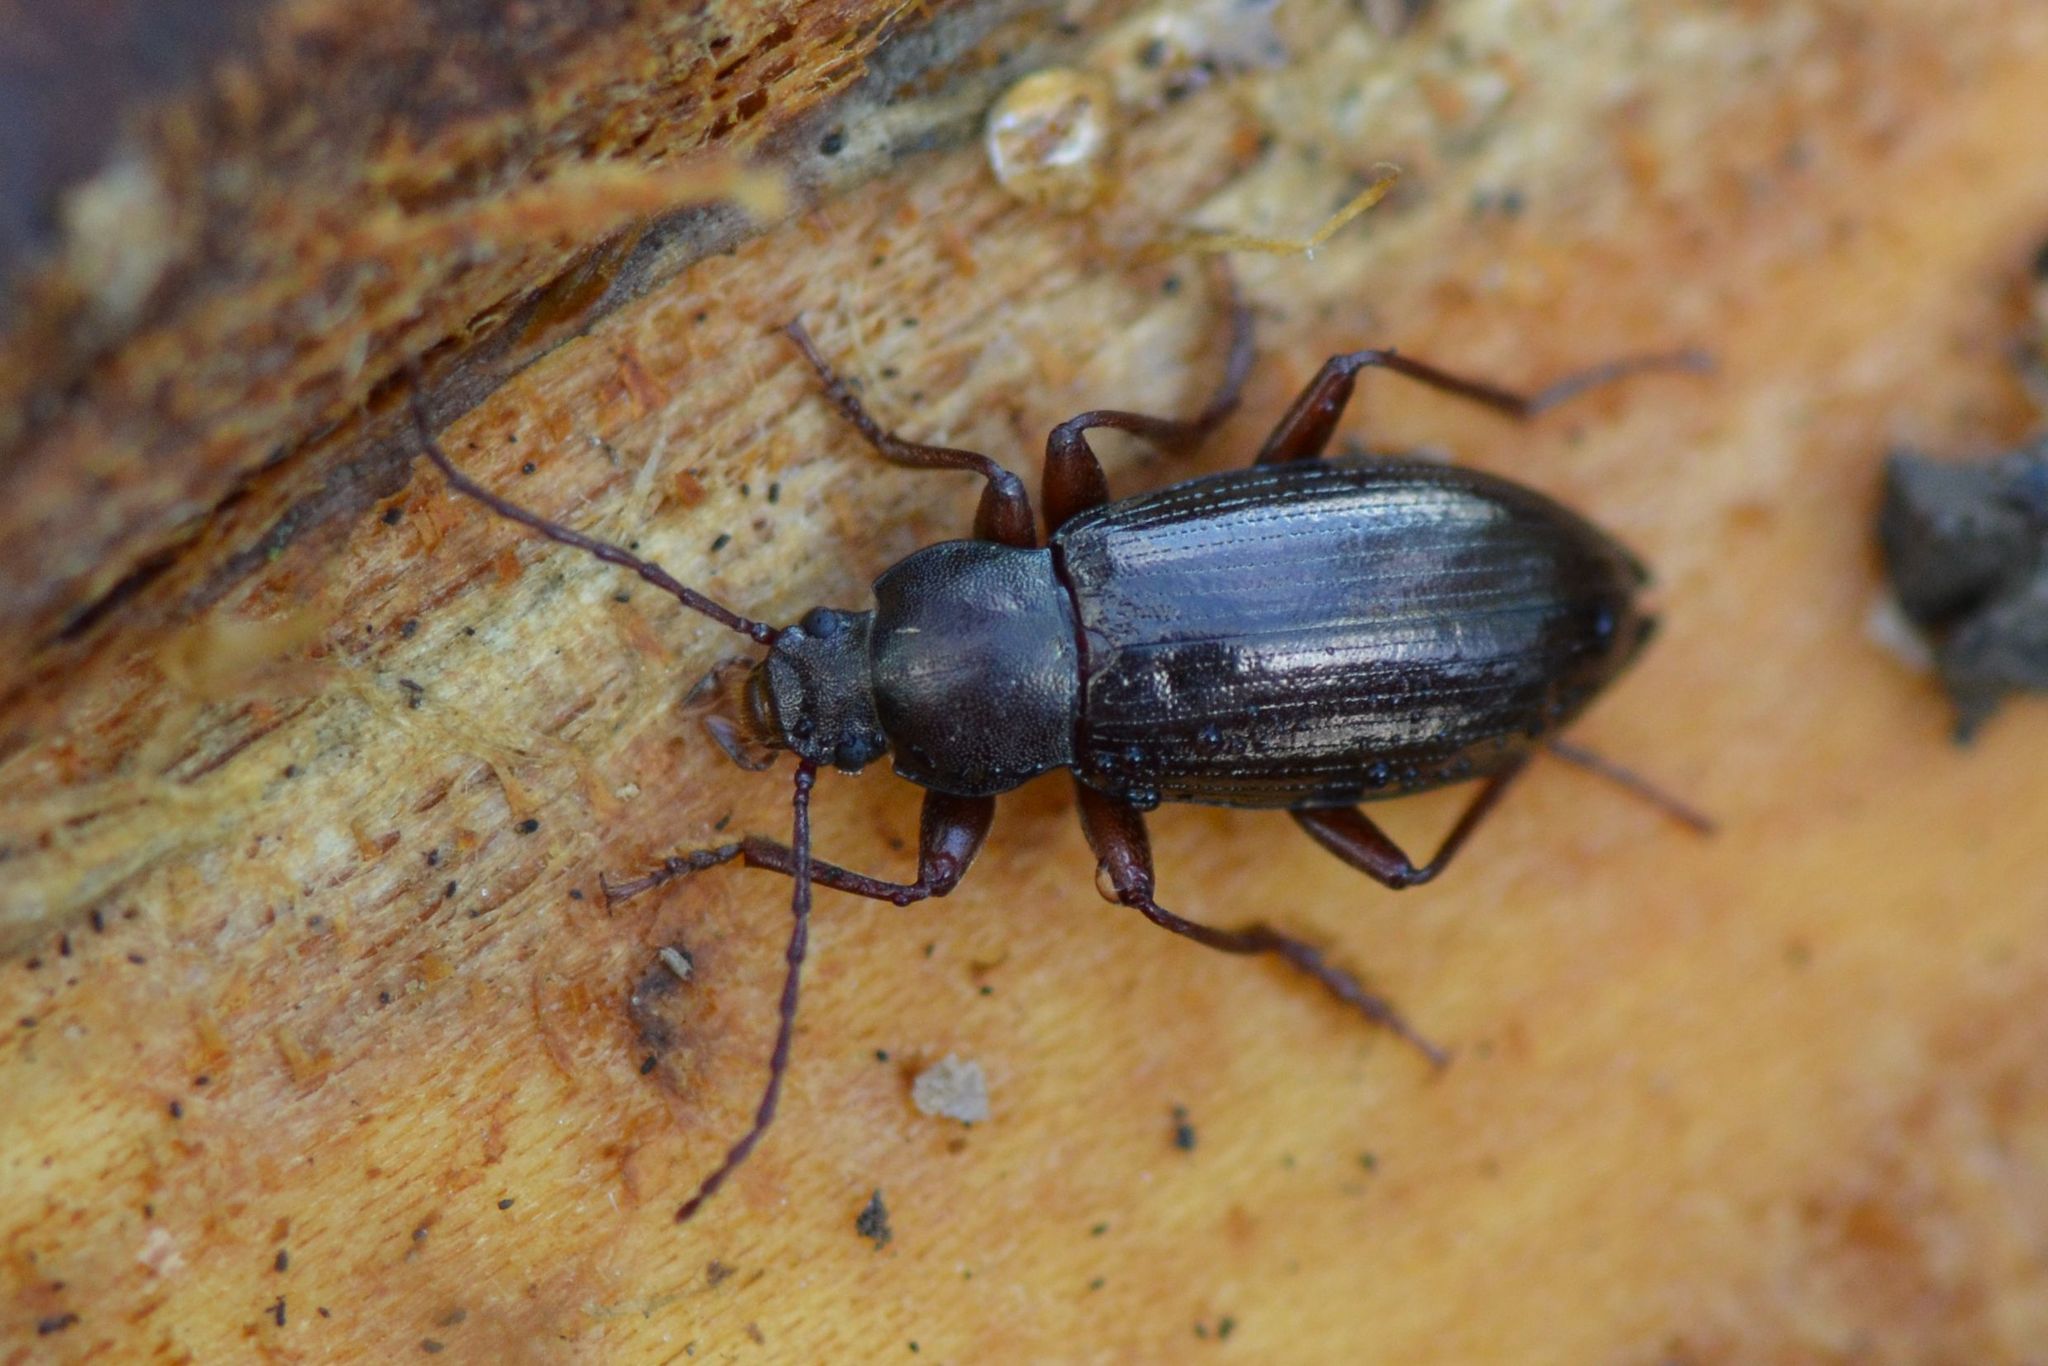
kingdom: Animalia
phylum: Arthropoda
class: Insecta
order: Coleoptera
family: Tenebrionidae
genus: Stenomax
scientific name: Stenomax aeneus
